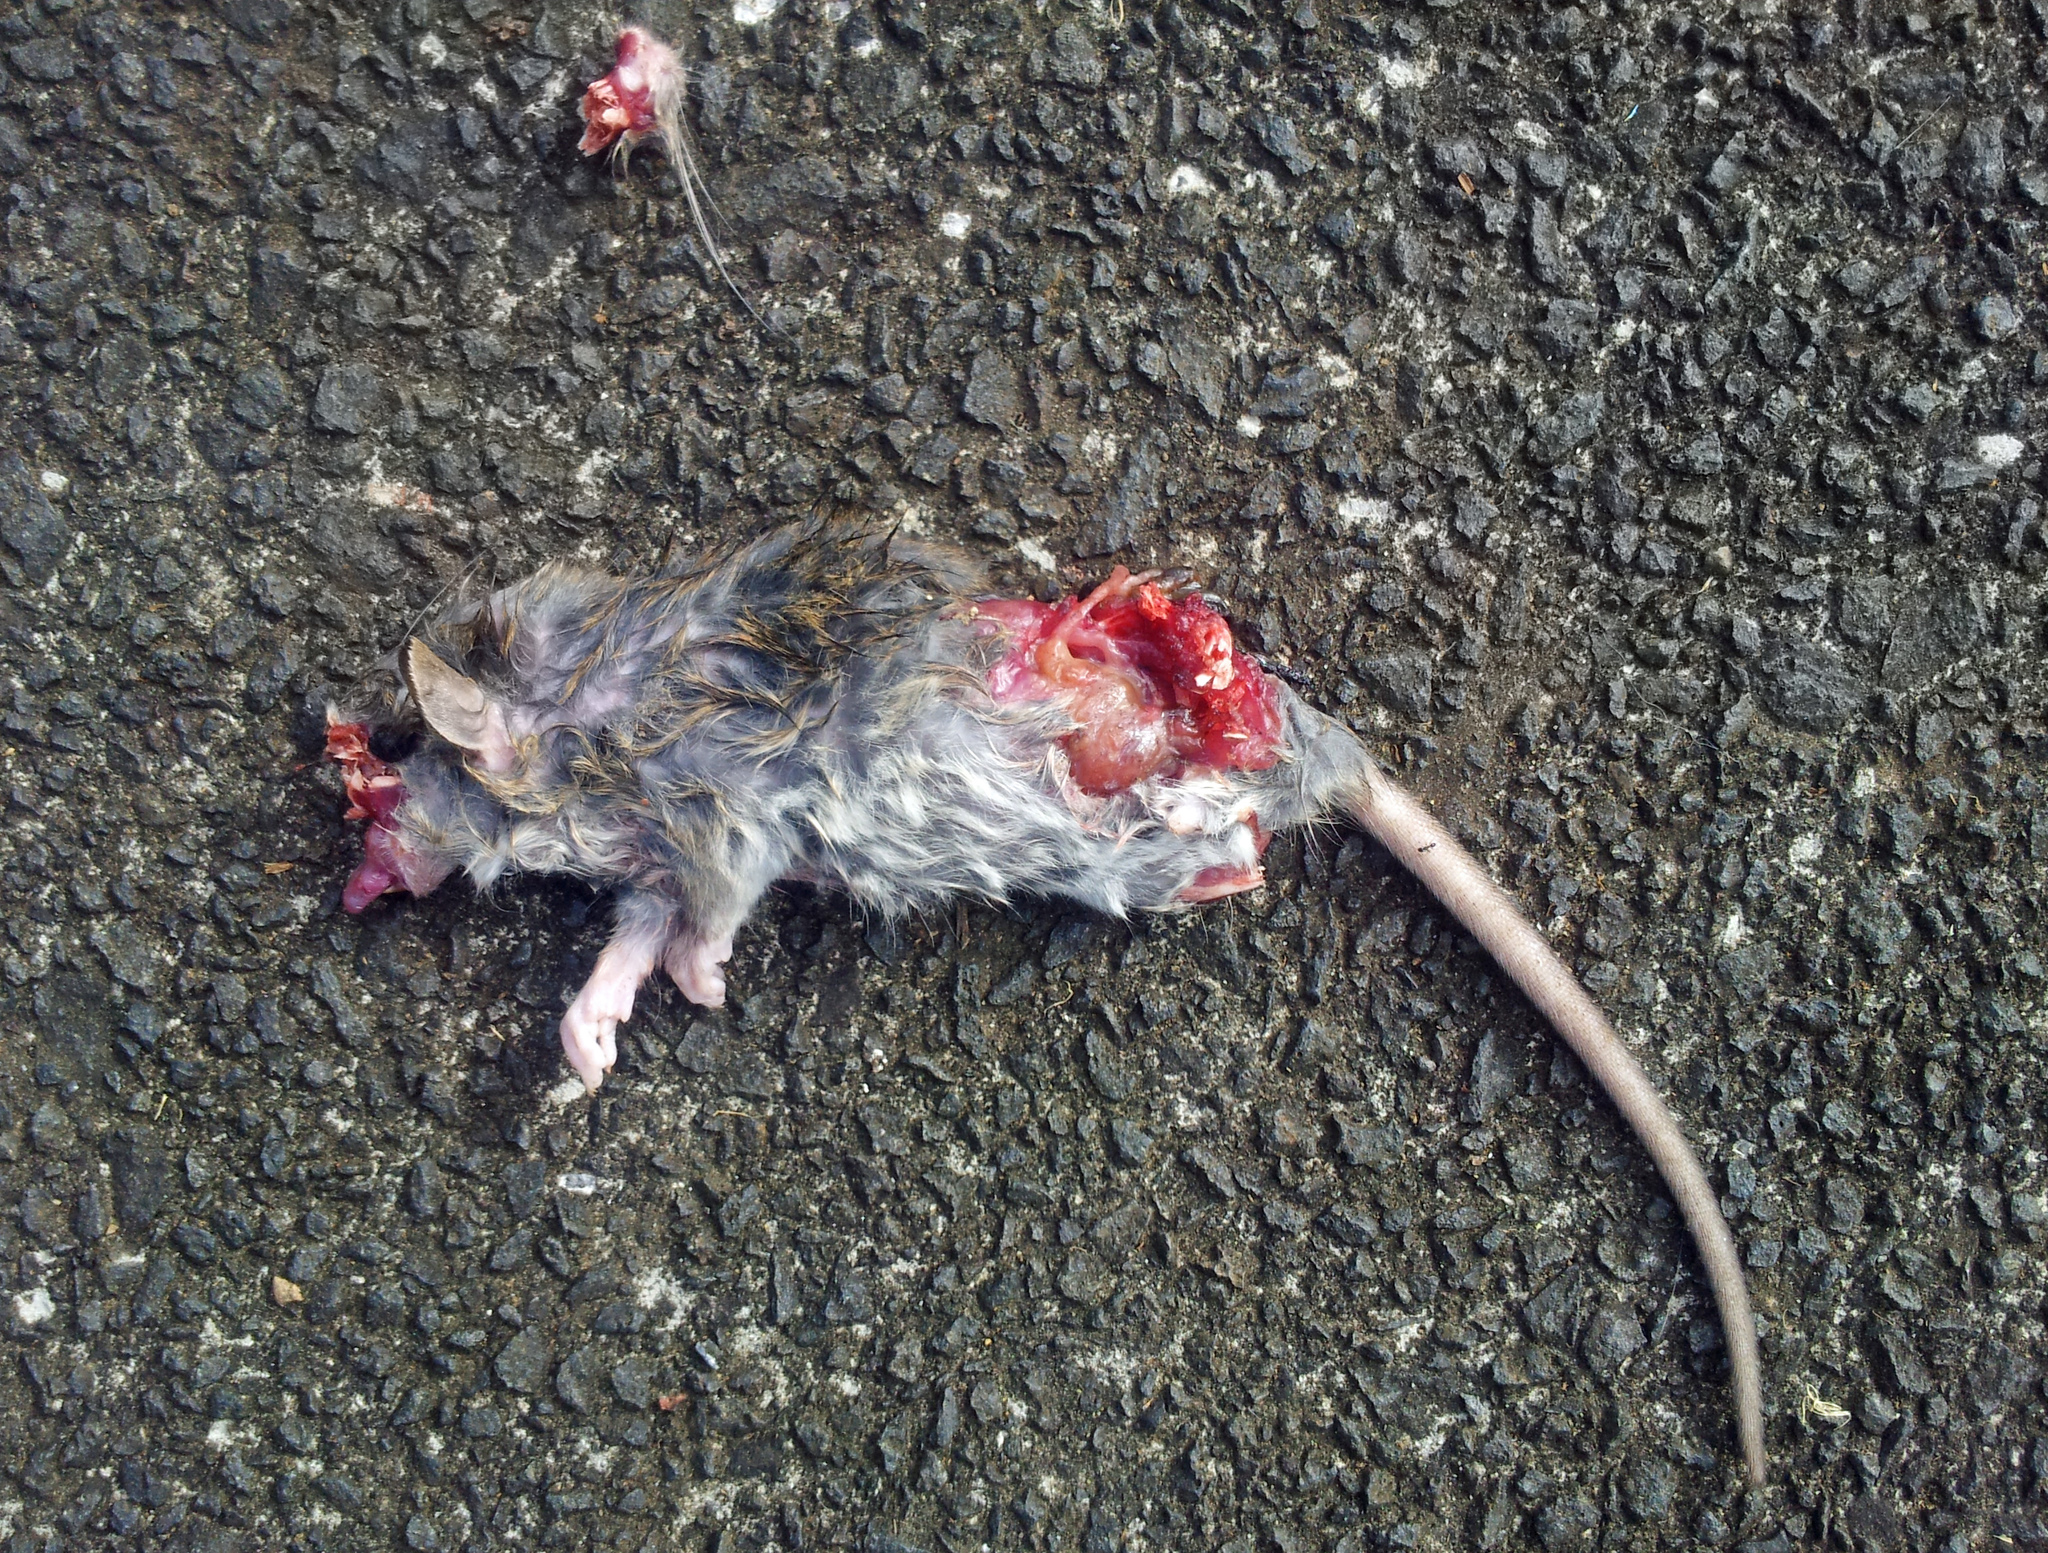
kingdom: Animalia
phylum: Chordata
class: Mammalia
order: Rodentia
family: Muridae
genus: Rattus
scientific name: Rattus rattus
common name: Black rat
